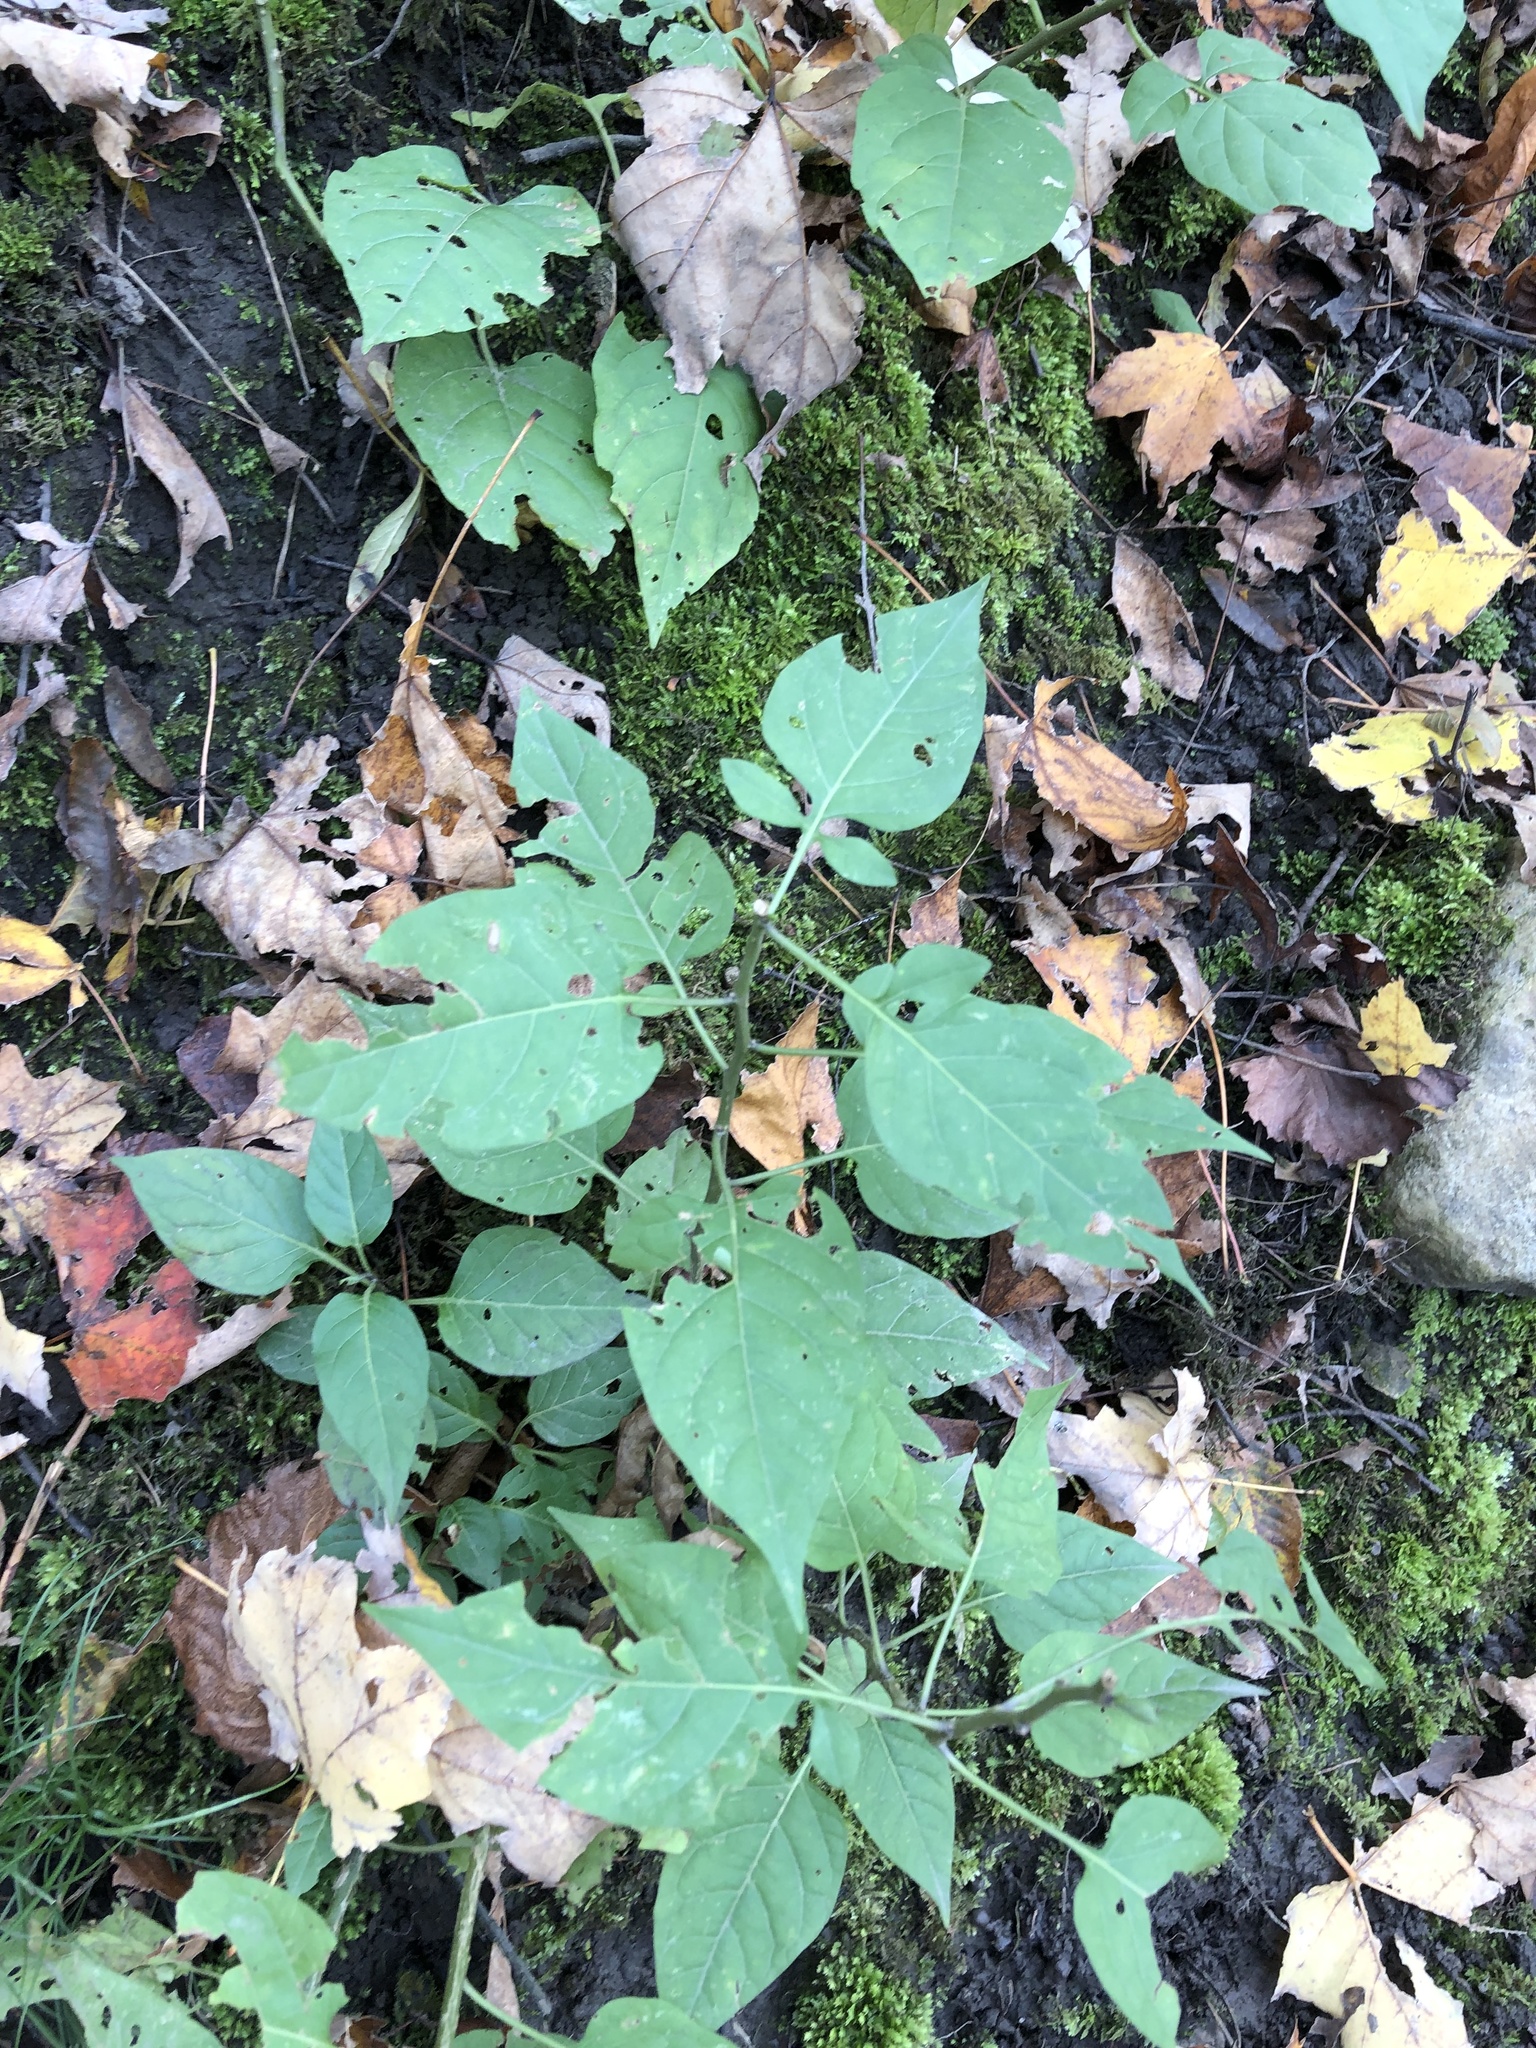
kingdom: Plantae
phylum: Tracheophyta
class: Magnoliopsida
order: Solanales
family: Solanaceae
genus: Solanum
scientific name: Solanum dulcamara
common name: Climbing nightshade
